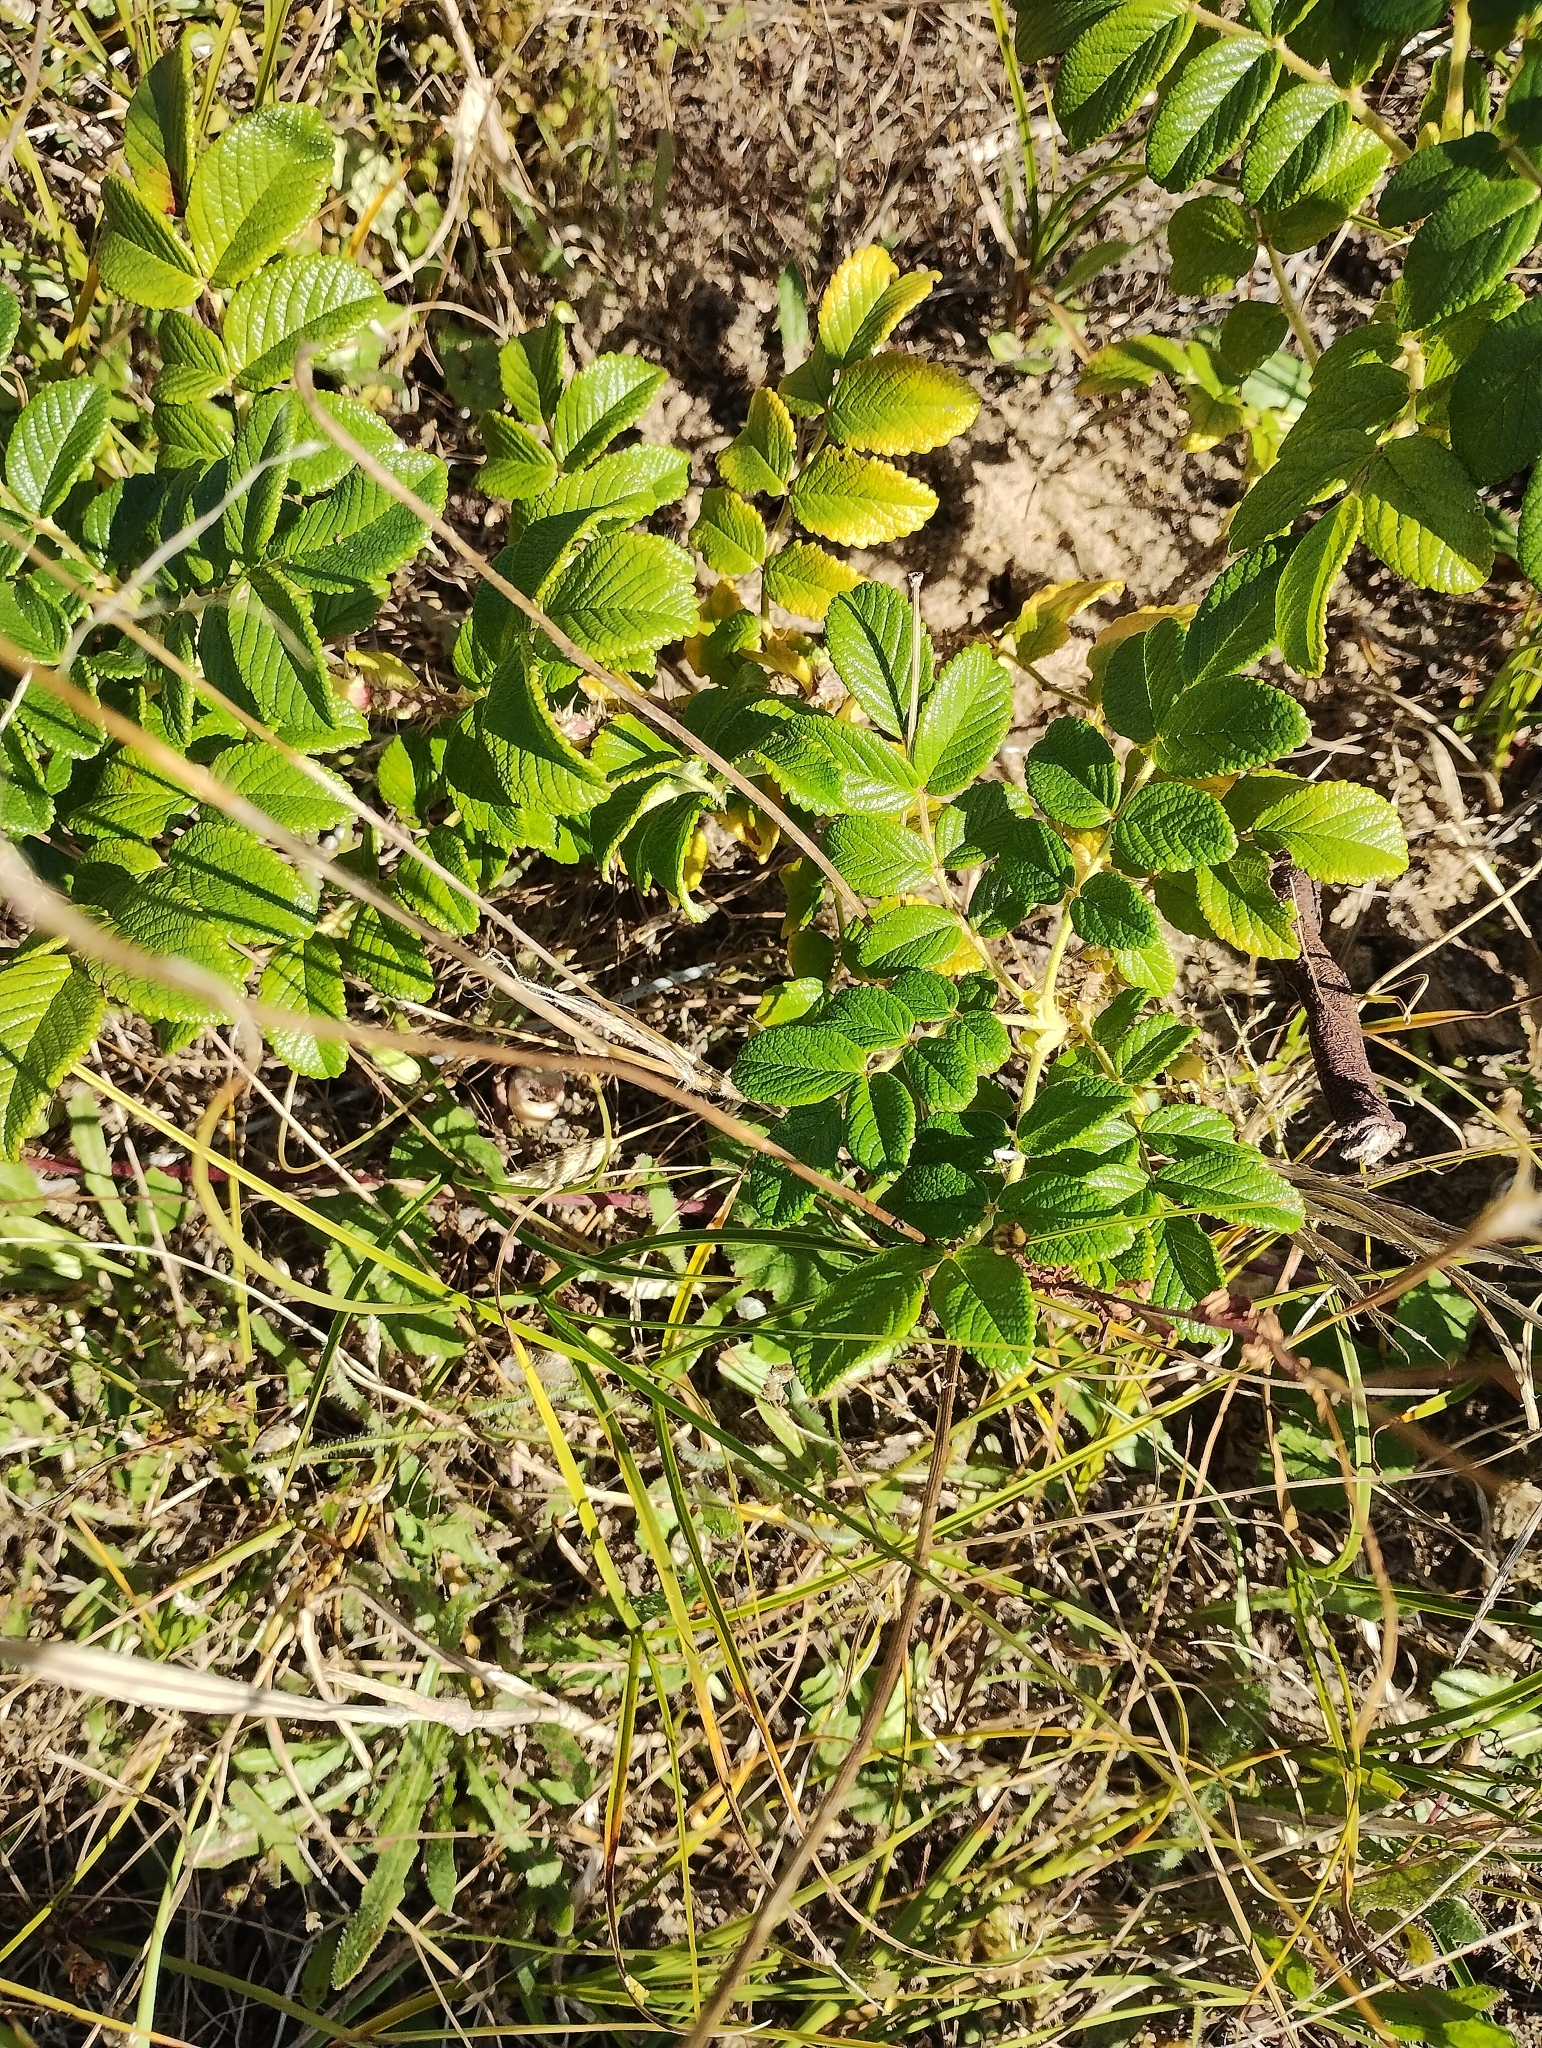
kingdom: Plantae
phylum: Tracheophyta
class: Magnoliopsida
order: Rosales
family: Rosaceae
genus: Rosa
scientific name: Rosa rugosa
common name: Japanese rose
